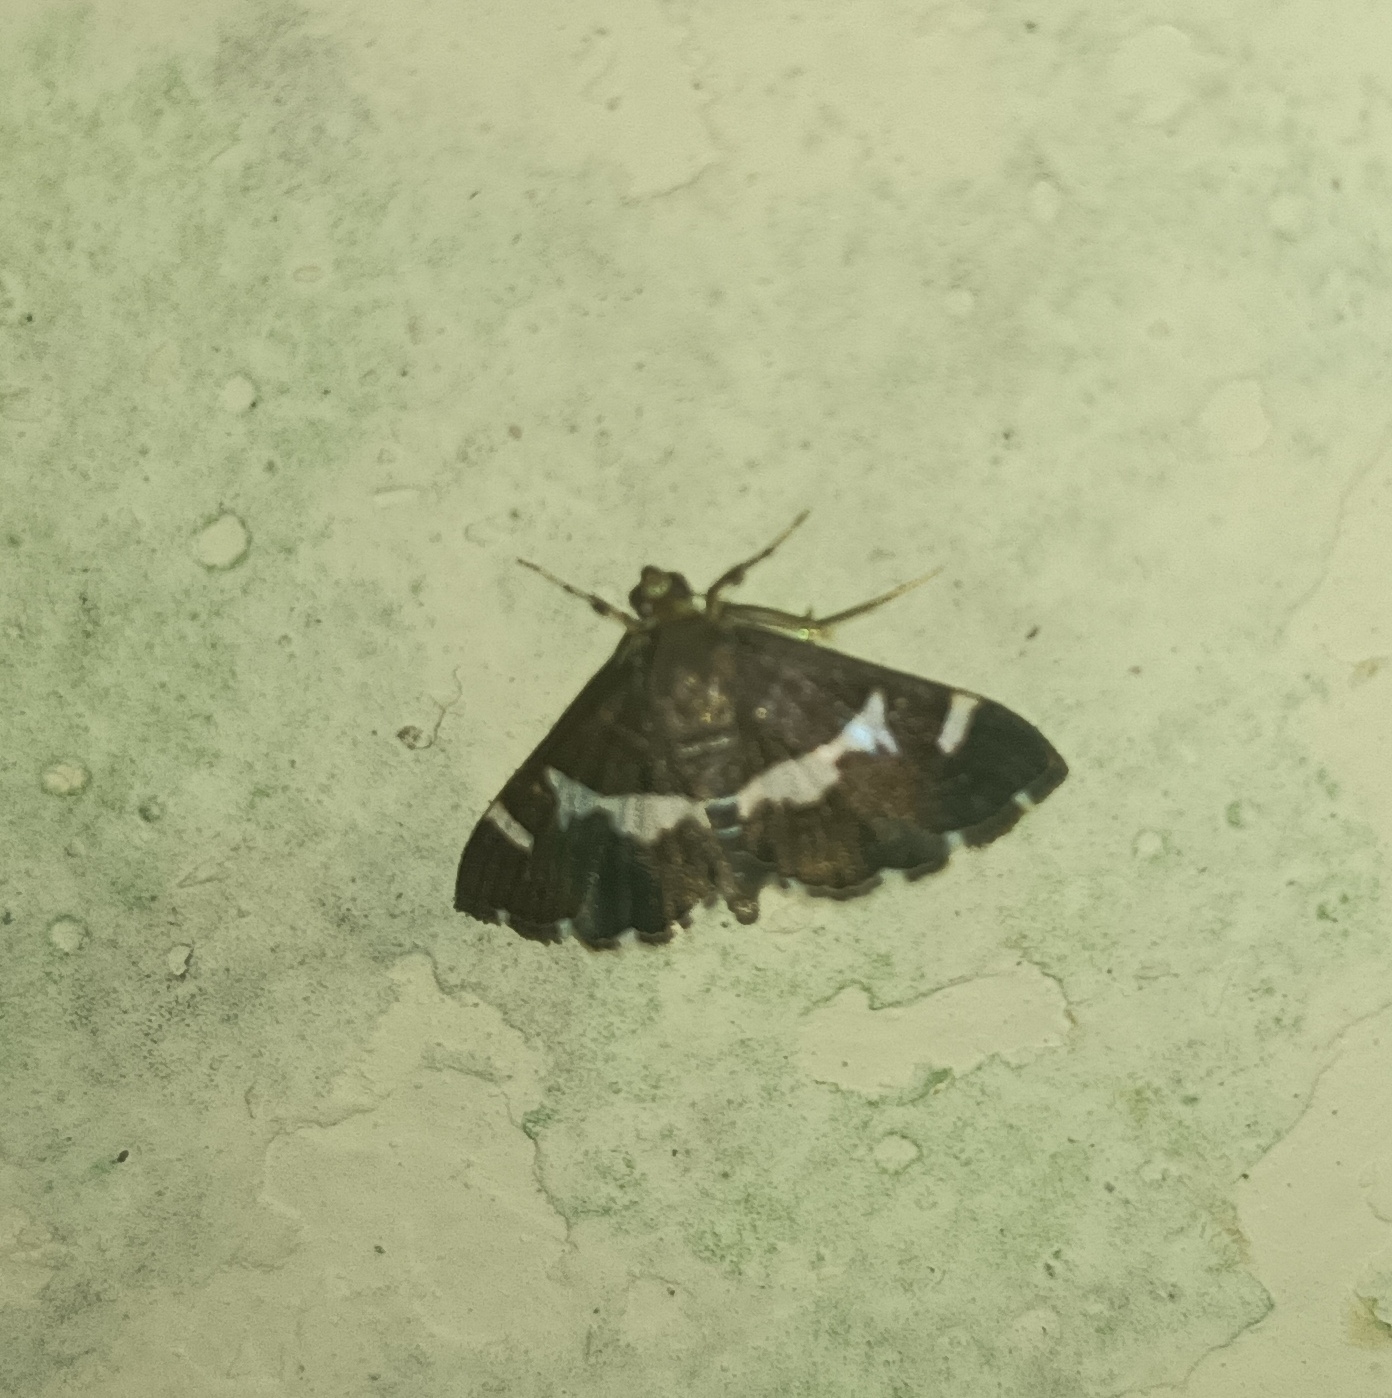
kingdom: Animalia
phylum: Arthropoda
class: Insecta
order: Lepidoptera
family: Crambidae
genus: Spoladea
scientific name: Spoladea recurvalis
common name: Beet webworm moth
